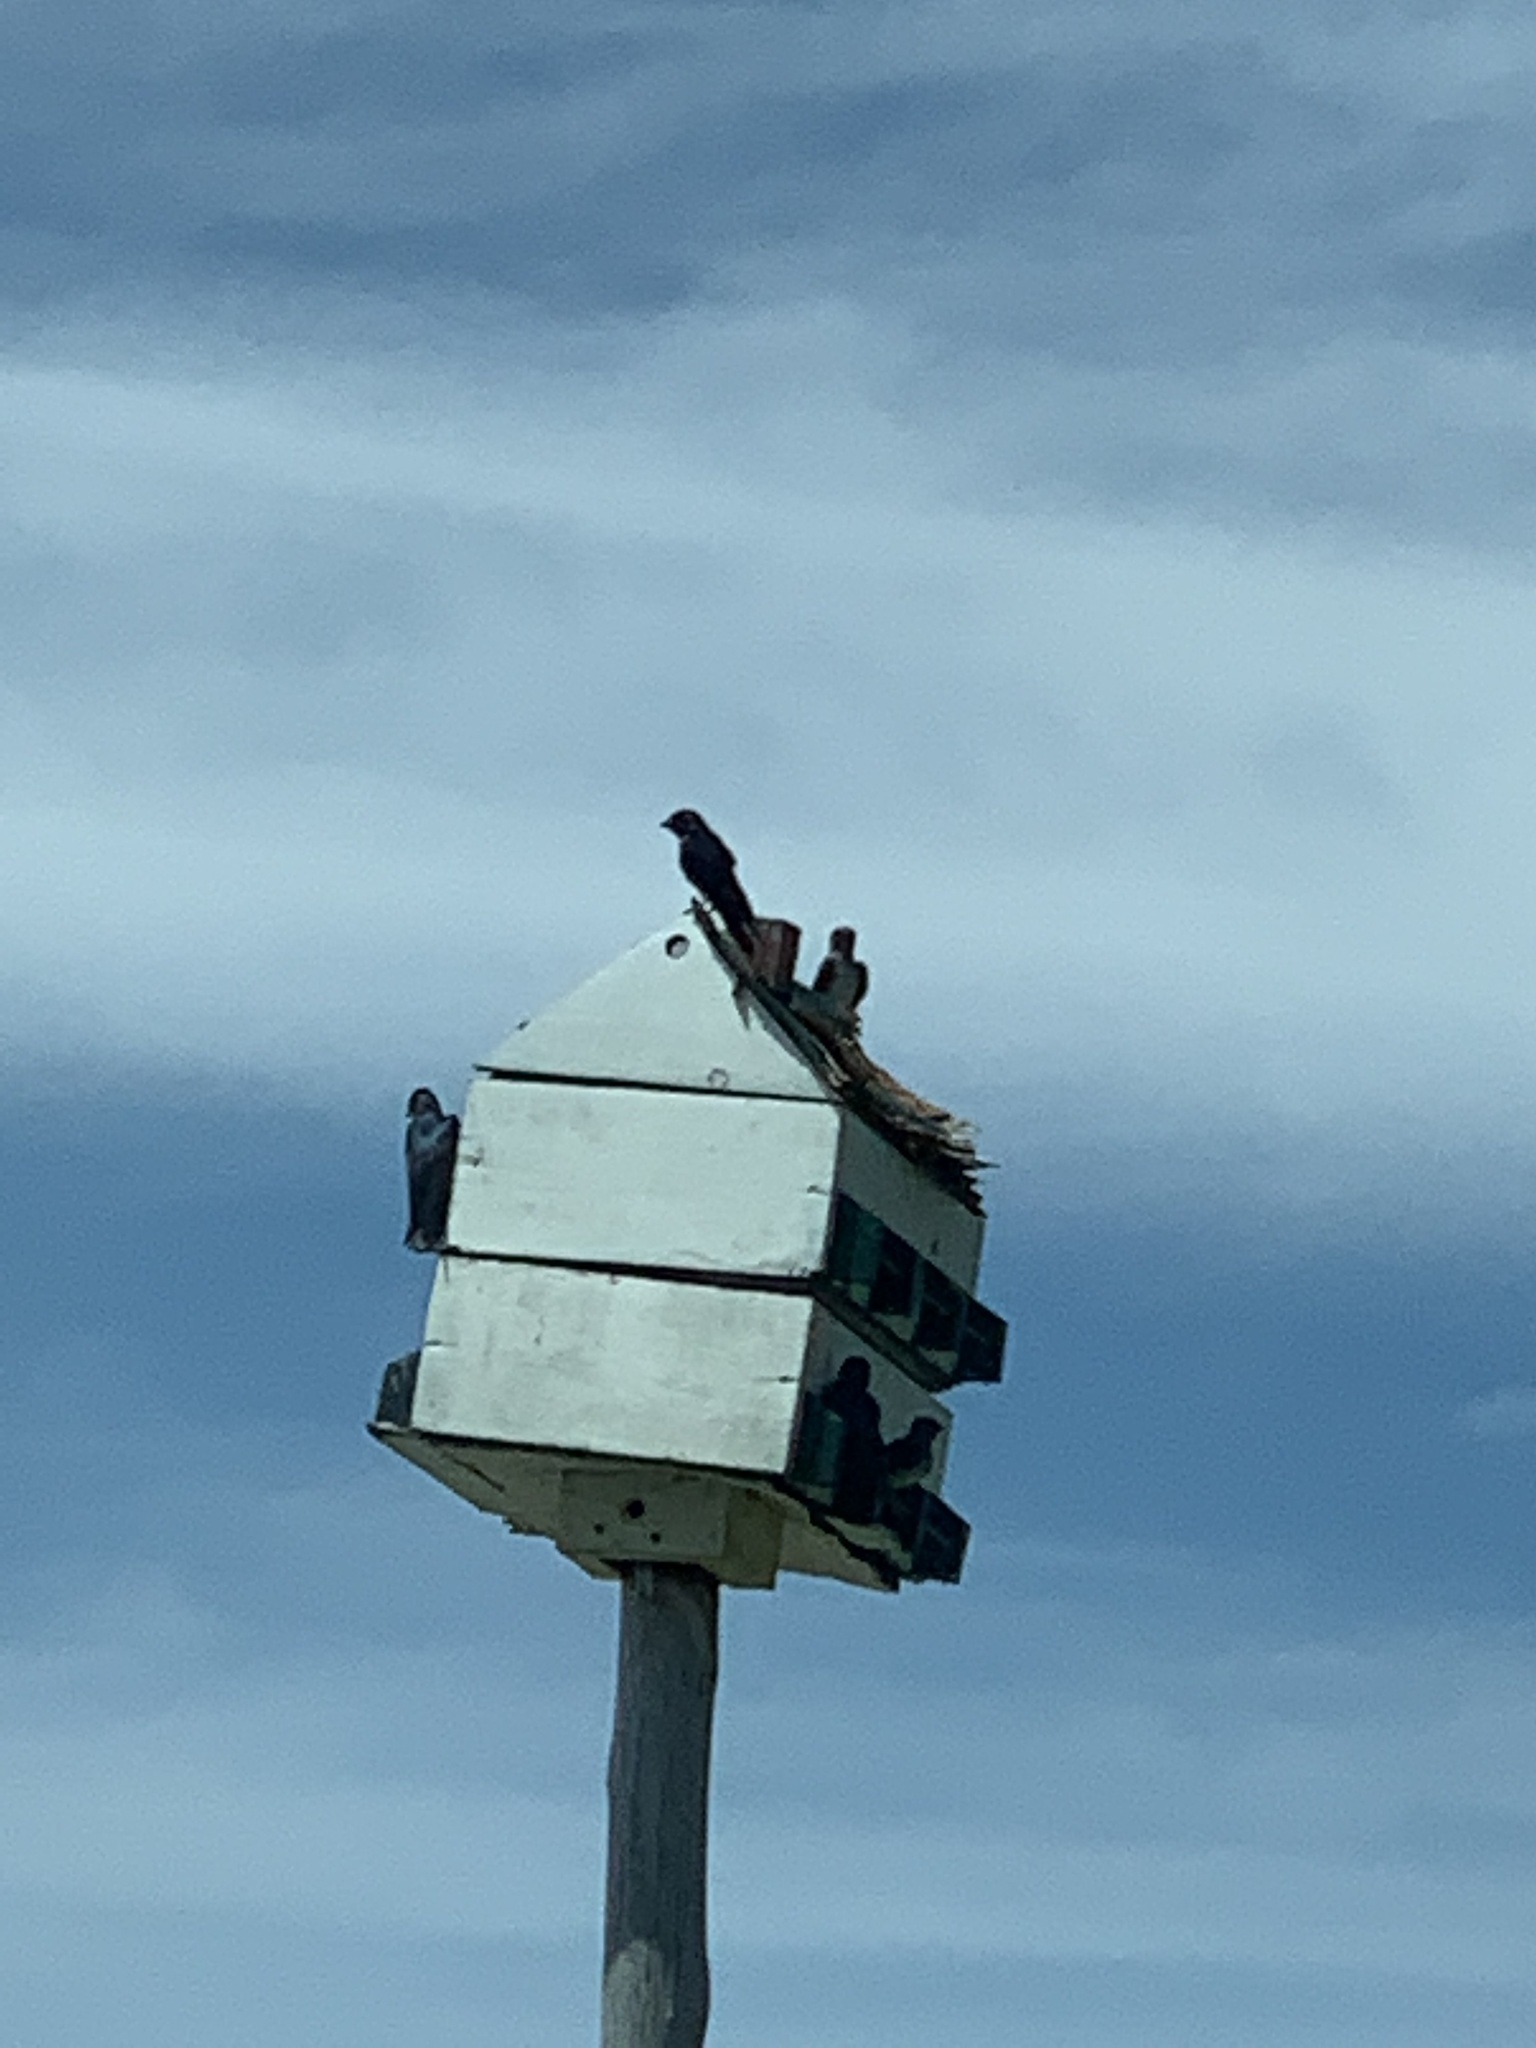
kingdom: Animalia
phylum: Chordata
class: Aves
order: Passeriformes
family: Hirundinidae
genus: Progne
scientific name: Progne subis
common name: Purple martin
